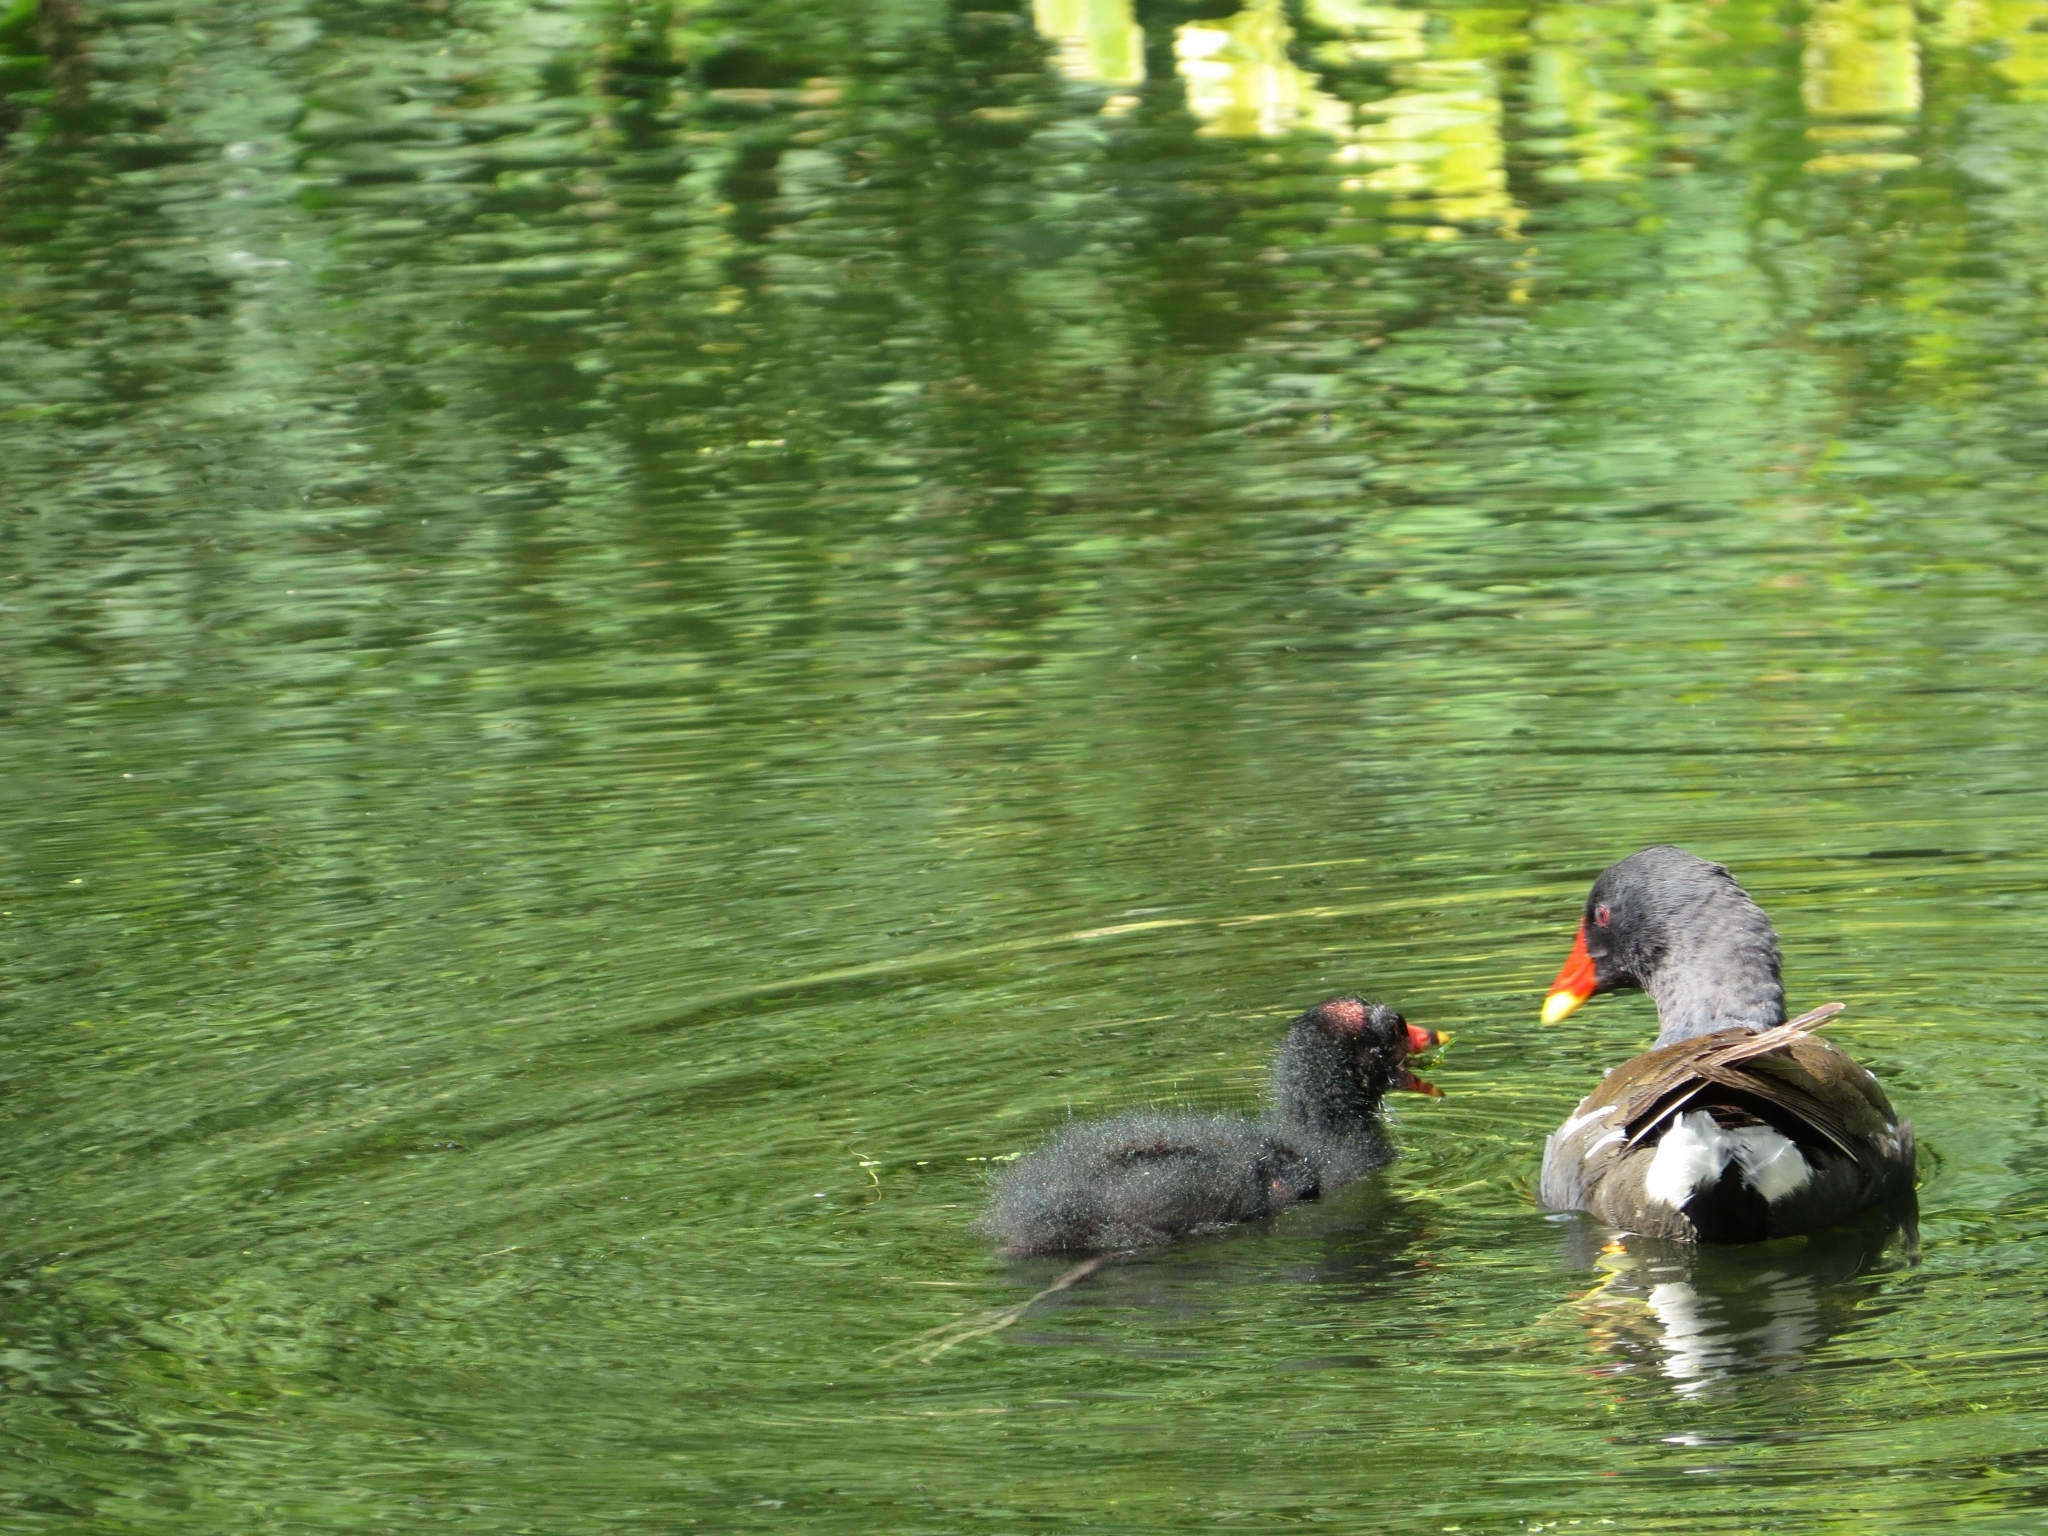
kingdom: Animalia
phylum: Chordata
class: Aves
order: Gruiformes
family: Rallidae
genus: Gallinula
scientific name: Gallinula chloropus
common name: Common moorhen
